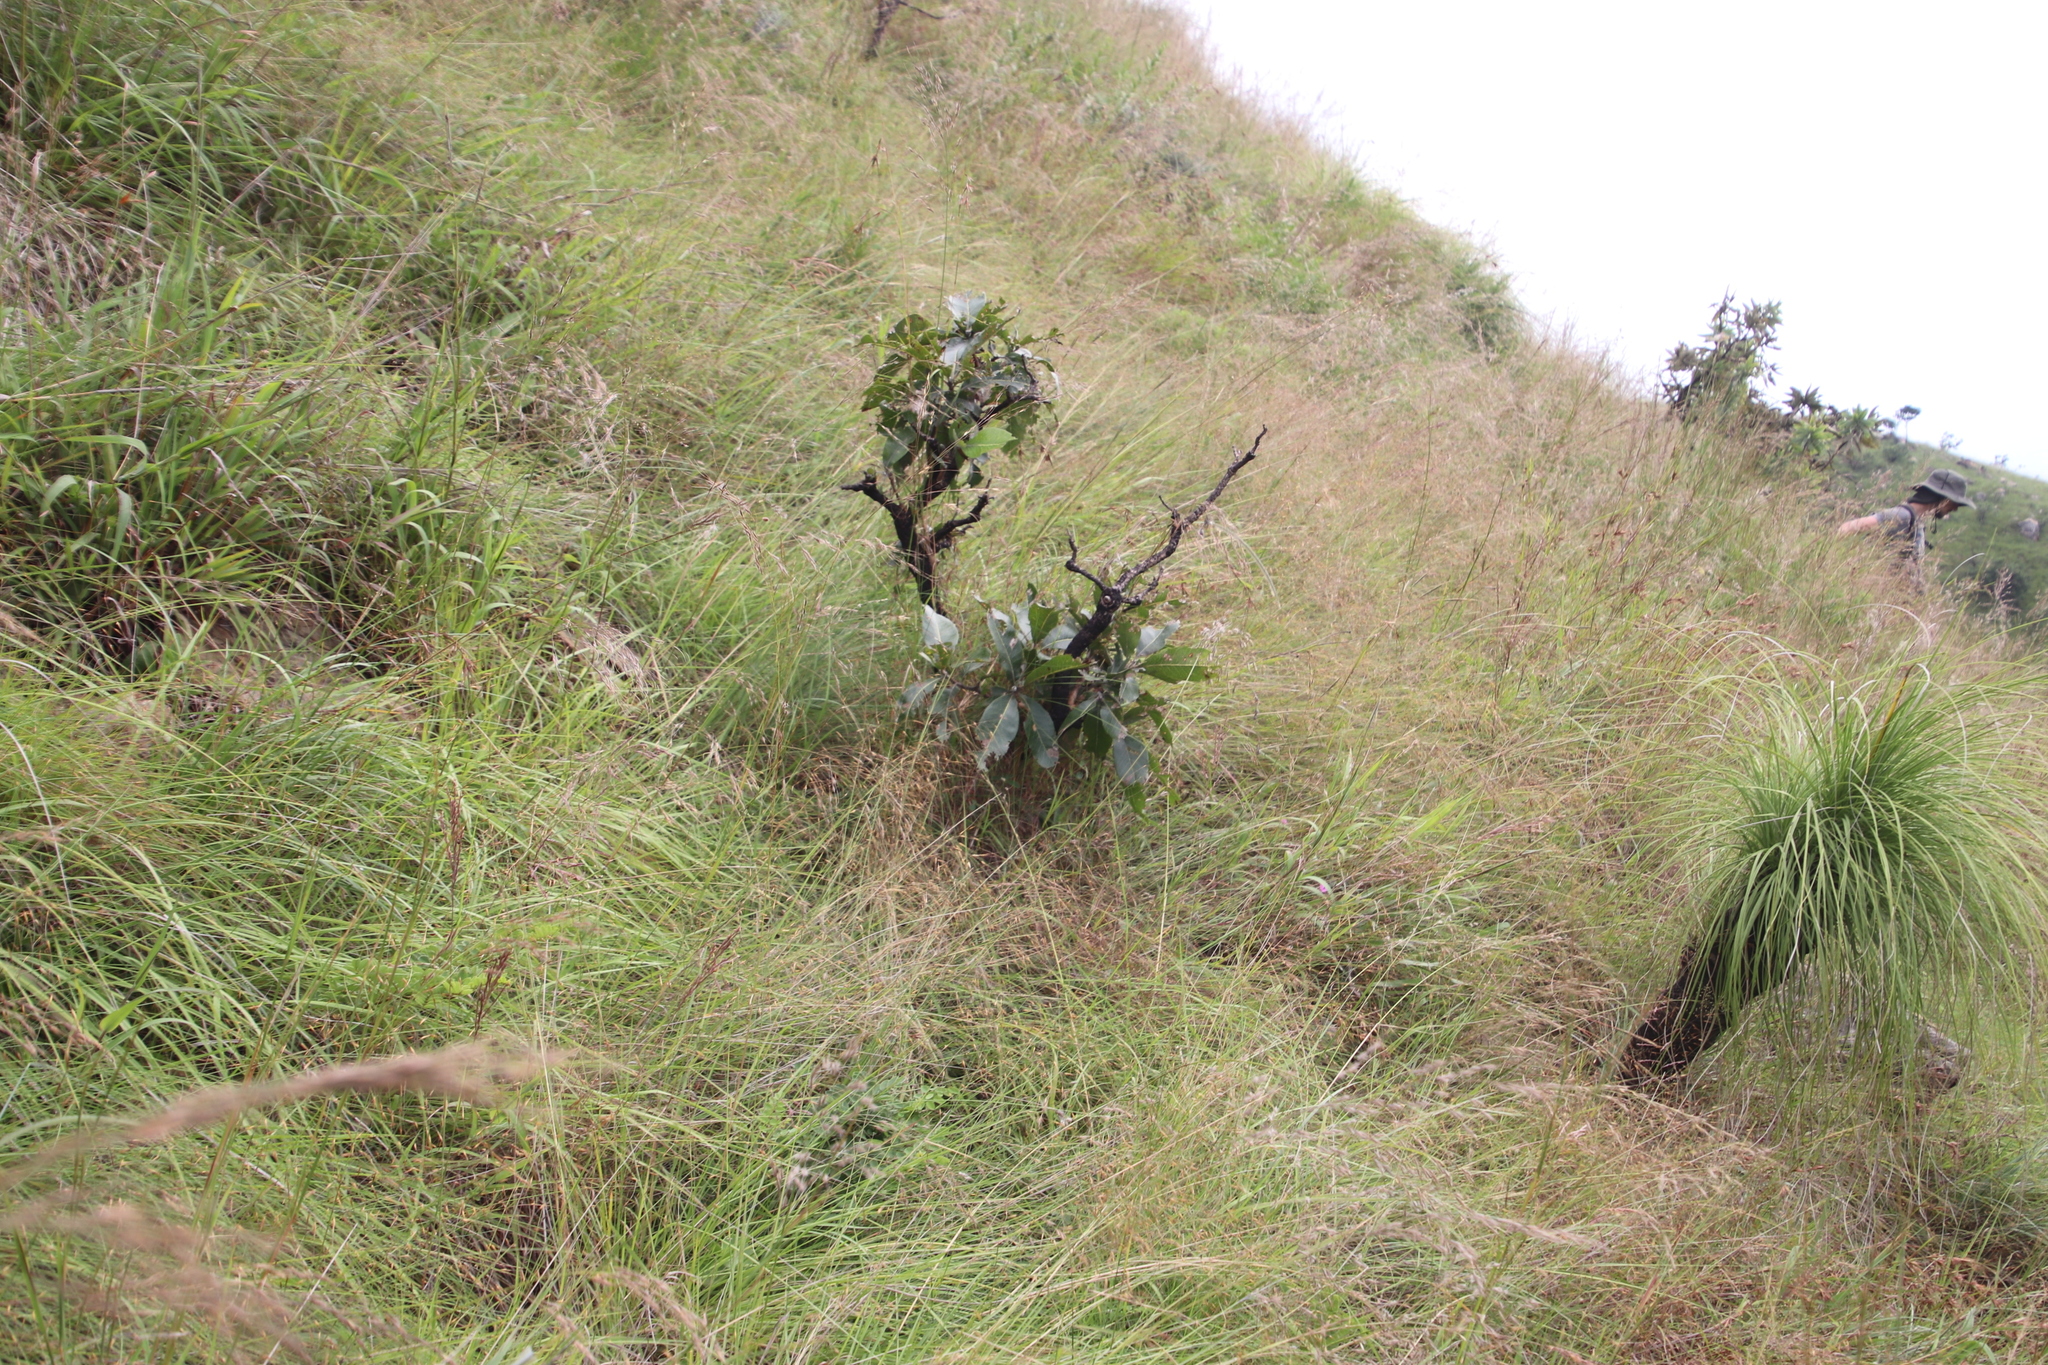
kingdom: Plantae
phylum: Tracheophyta
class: Magnoliopsida
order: Proteales
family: Proteaceae
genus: Faurea
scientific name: Faurea rochetiana
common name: Broad-leaved beech
